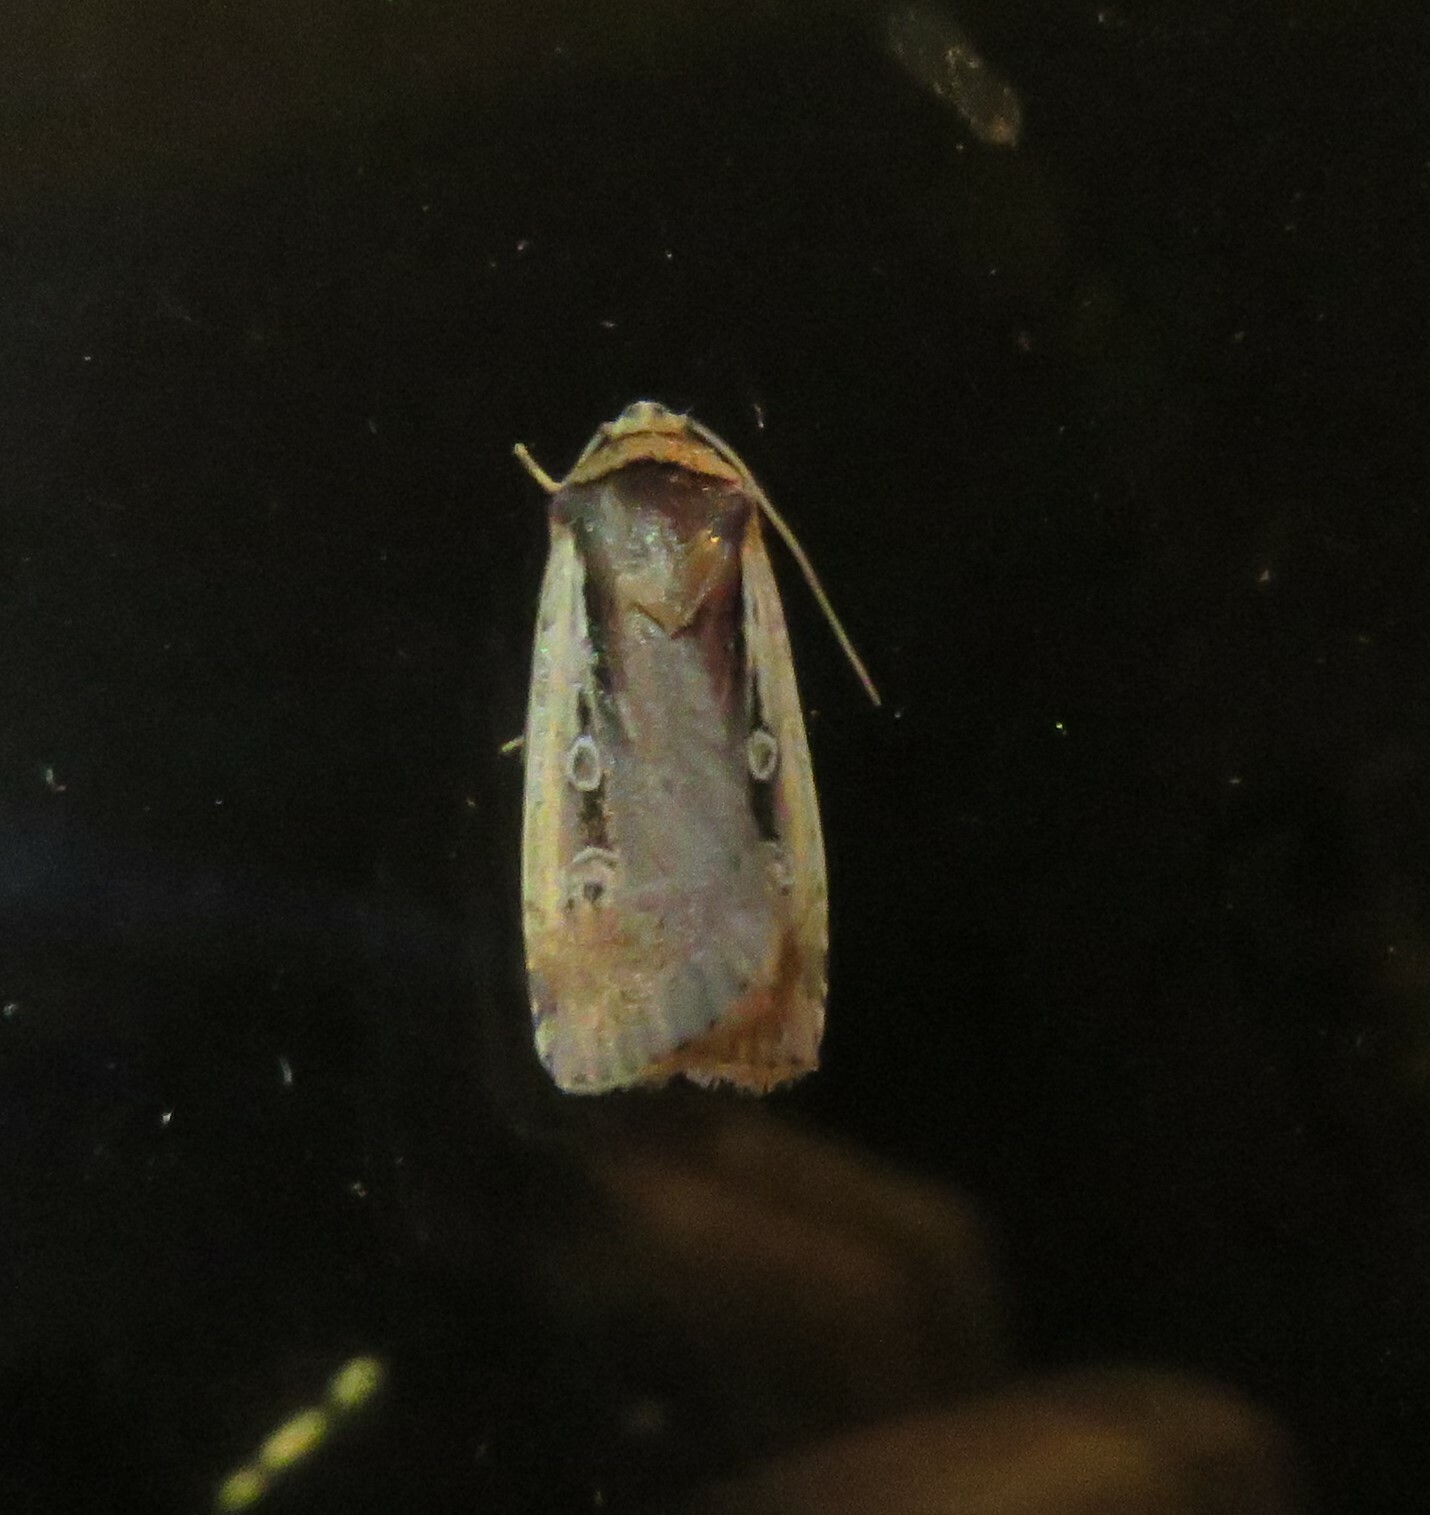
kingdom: Animalia
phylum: Arthropoda
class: Insecta
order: Lepidoptera
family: Noctuidae
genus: Ochropleura
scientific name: Ochropleura implecta
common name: Flame-shouldered dart
